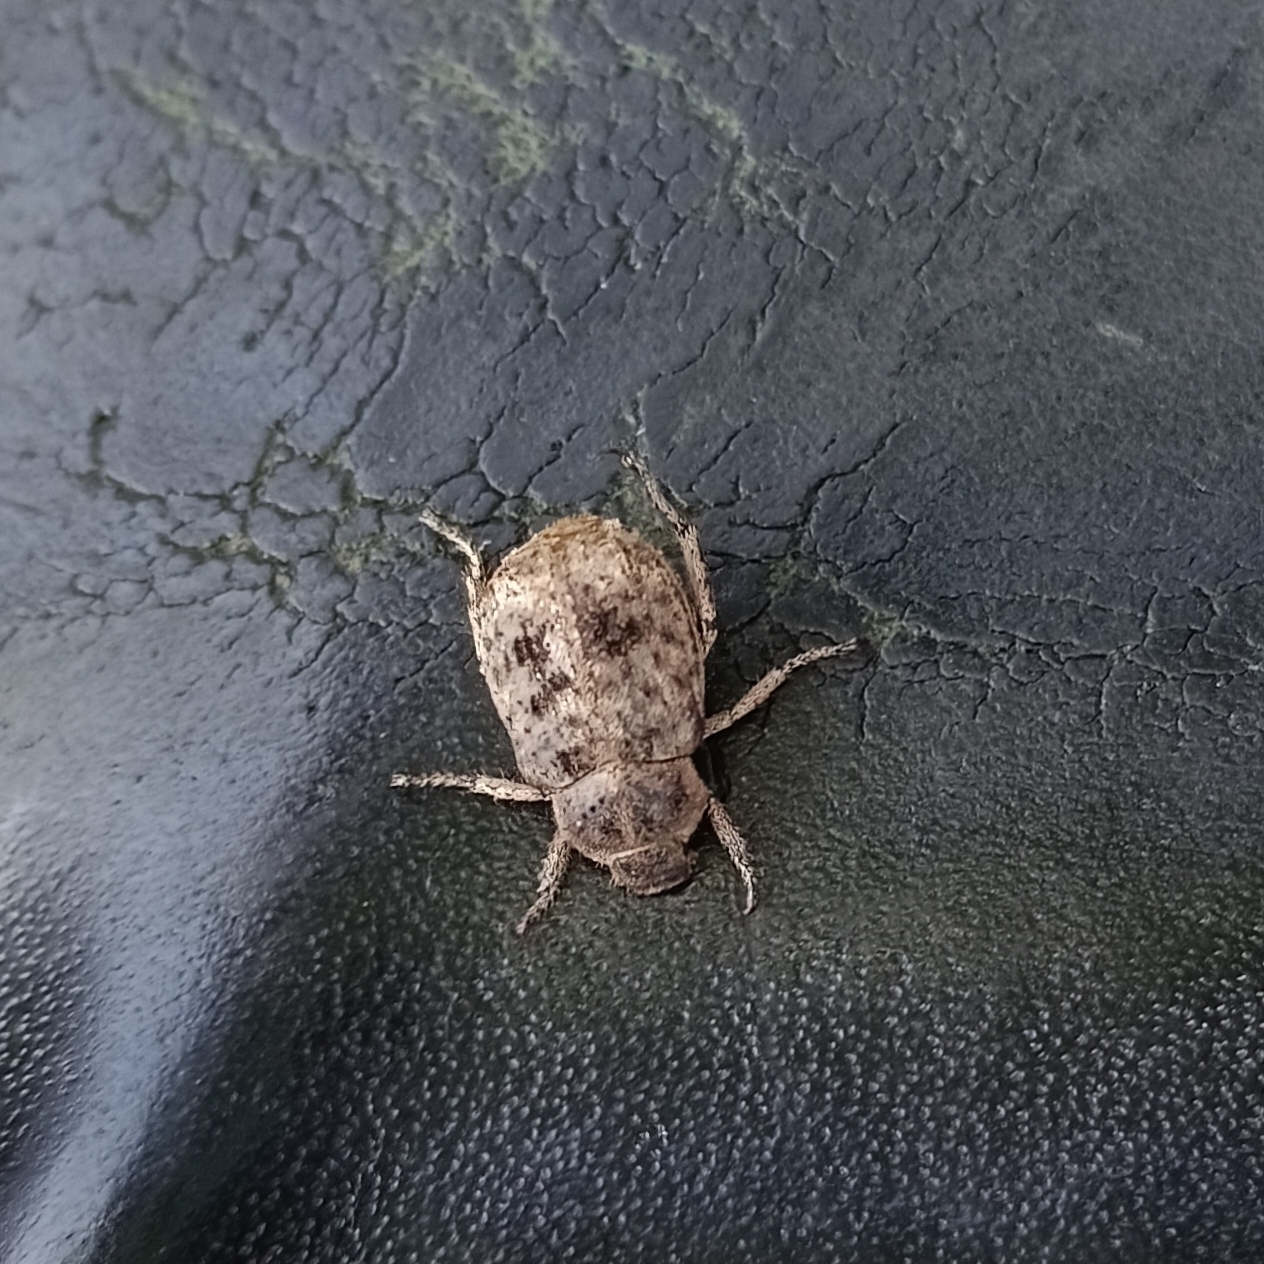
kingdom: Animalia
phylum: Arthropoda
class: Insecta
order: Coleoptera
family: Scarabaeidae
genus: Hoplia
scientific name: Hoplia sordida
